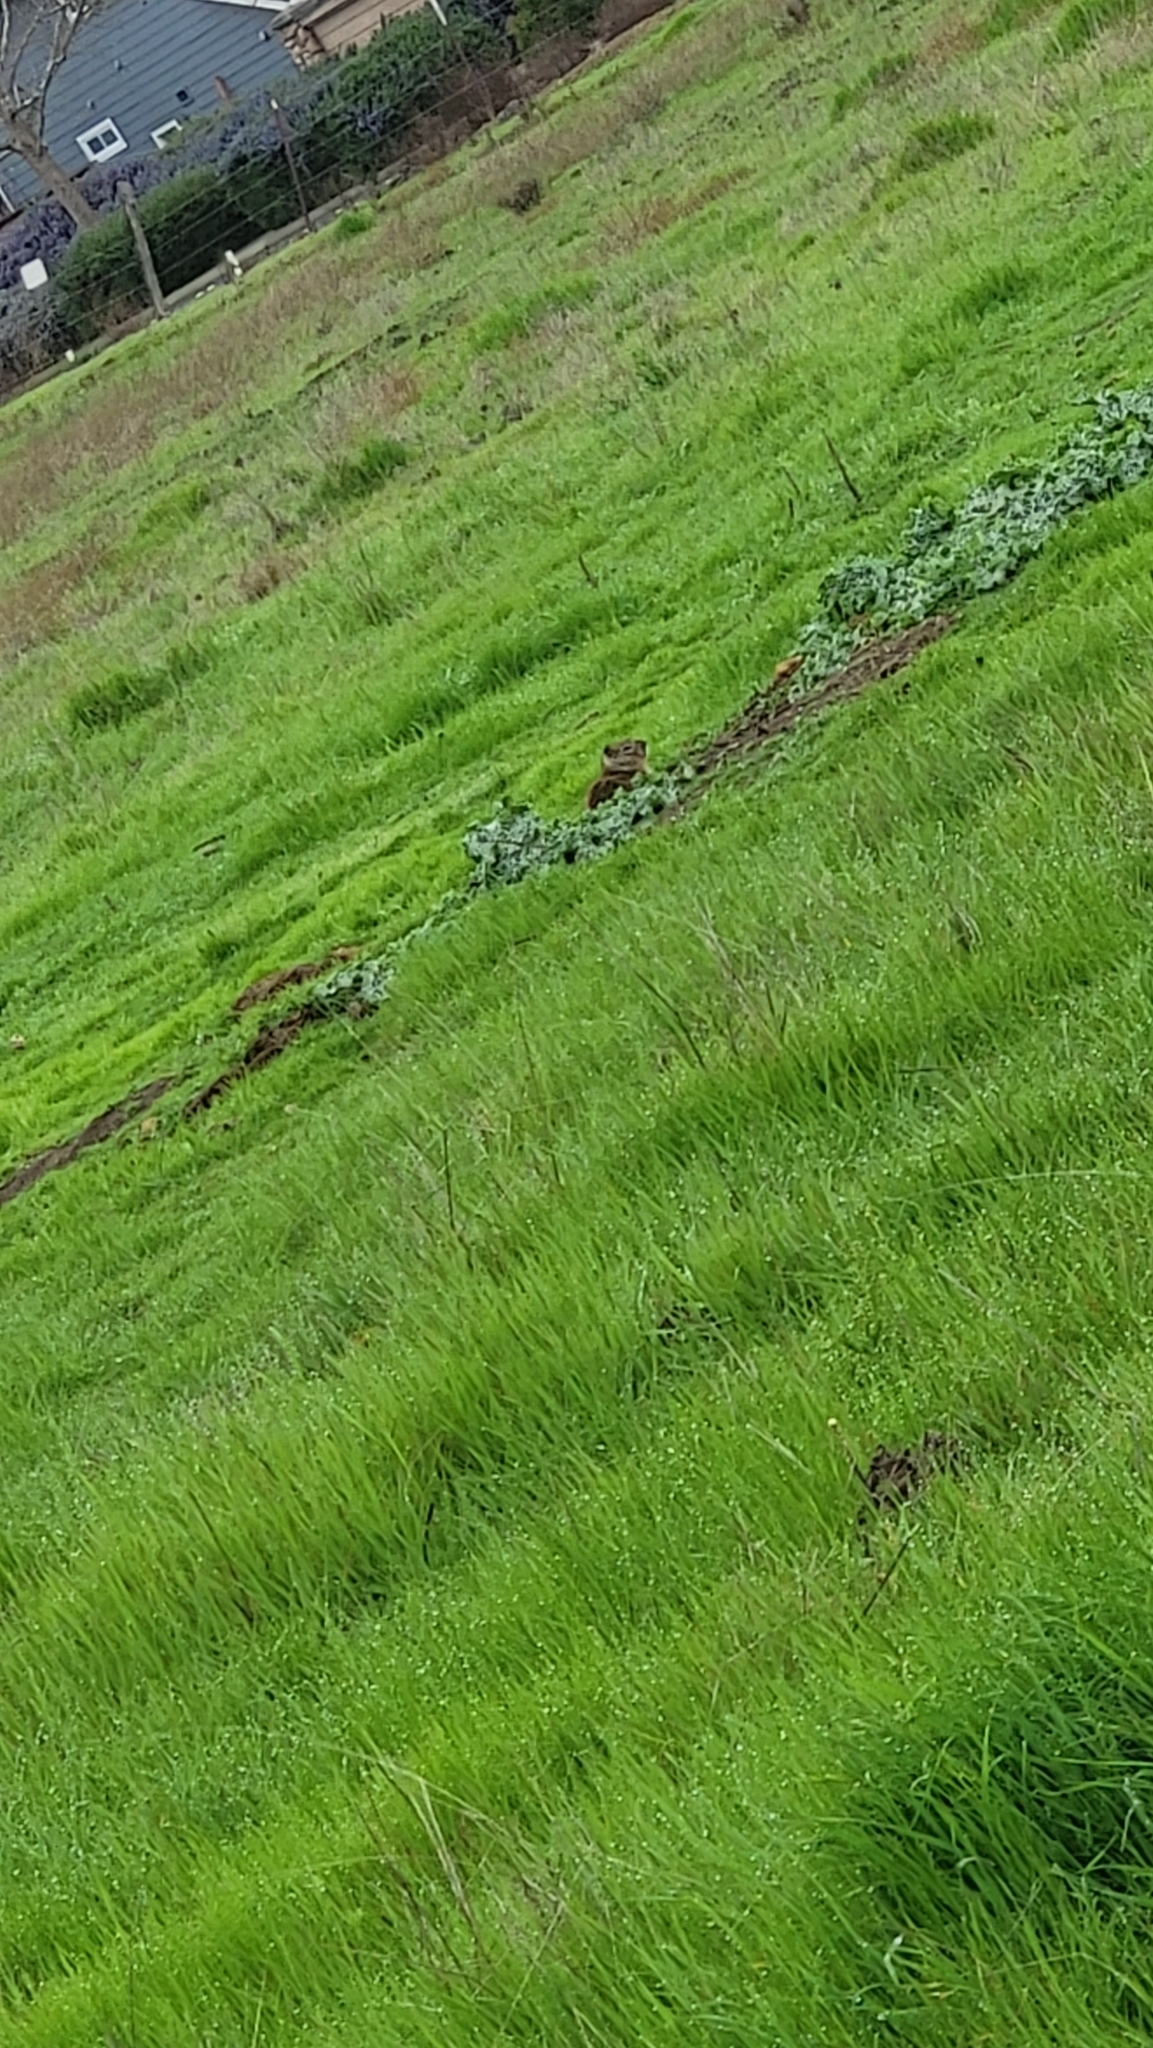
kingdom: Animalia
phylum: Chordata
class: Mammalia
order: Rodentia
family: Sciuridae
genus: Otospermophilus
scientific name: Otospermophilus beecheyi
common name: California ground squirrel
